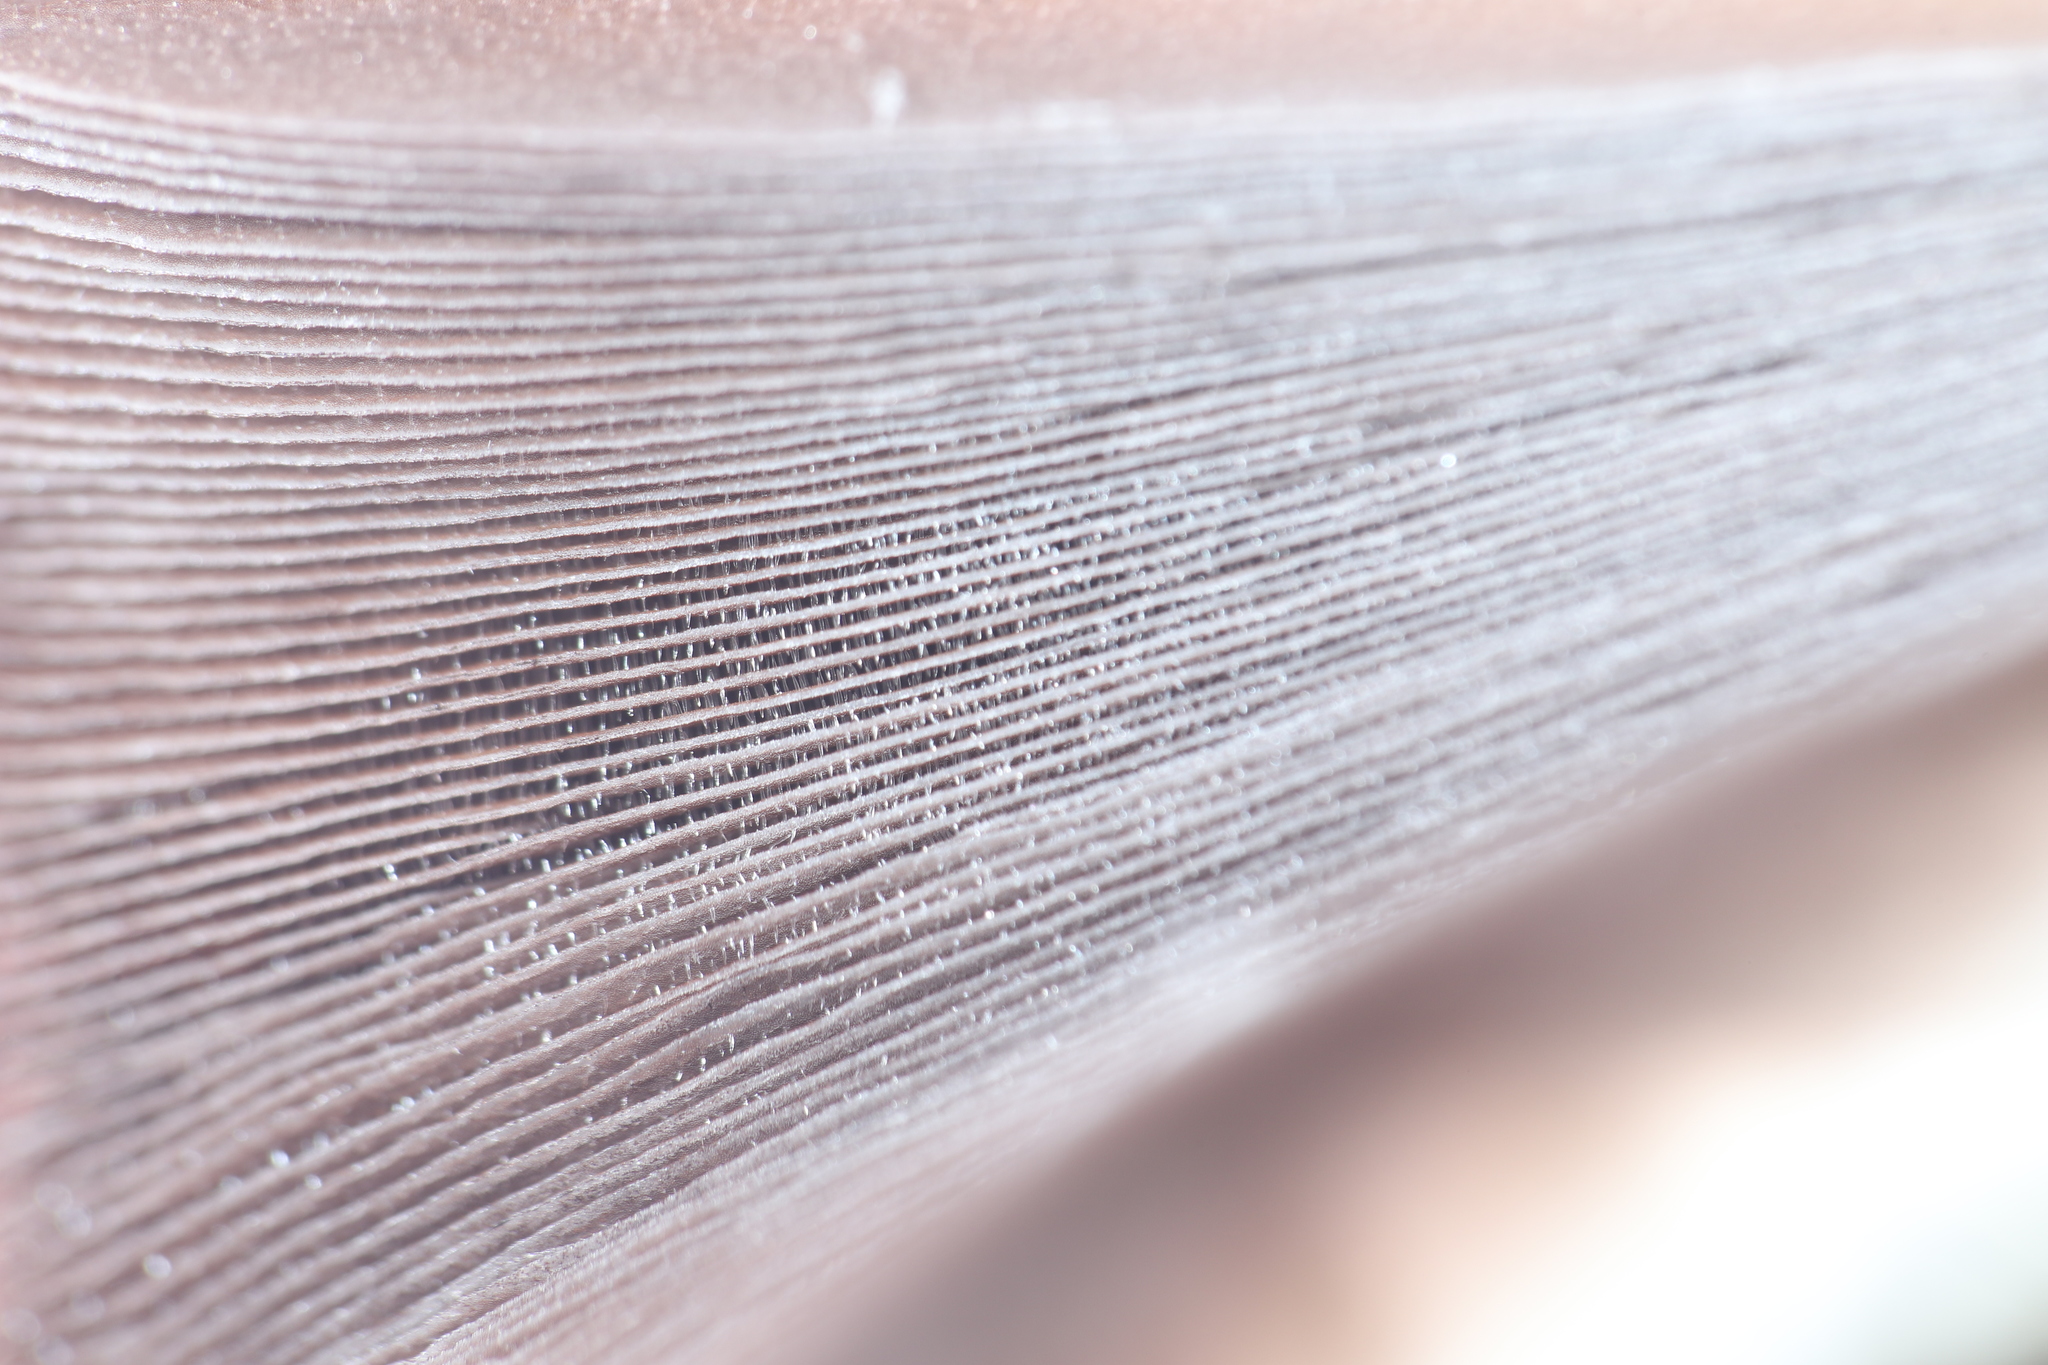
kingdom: Fungi
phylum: Basidiomycota
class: Agaricomycetes
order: Agaricales
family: Psathyrellaceae
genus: Coprinopsis
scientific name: Coprinopsis variegata
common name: Scaly ink cap
